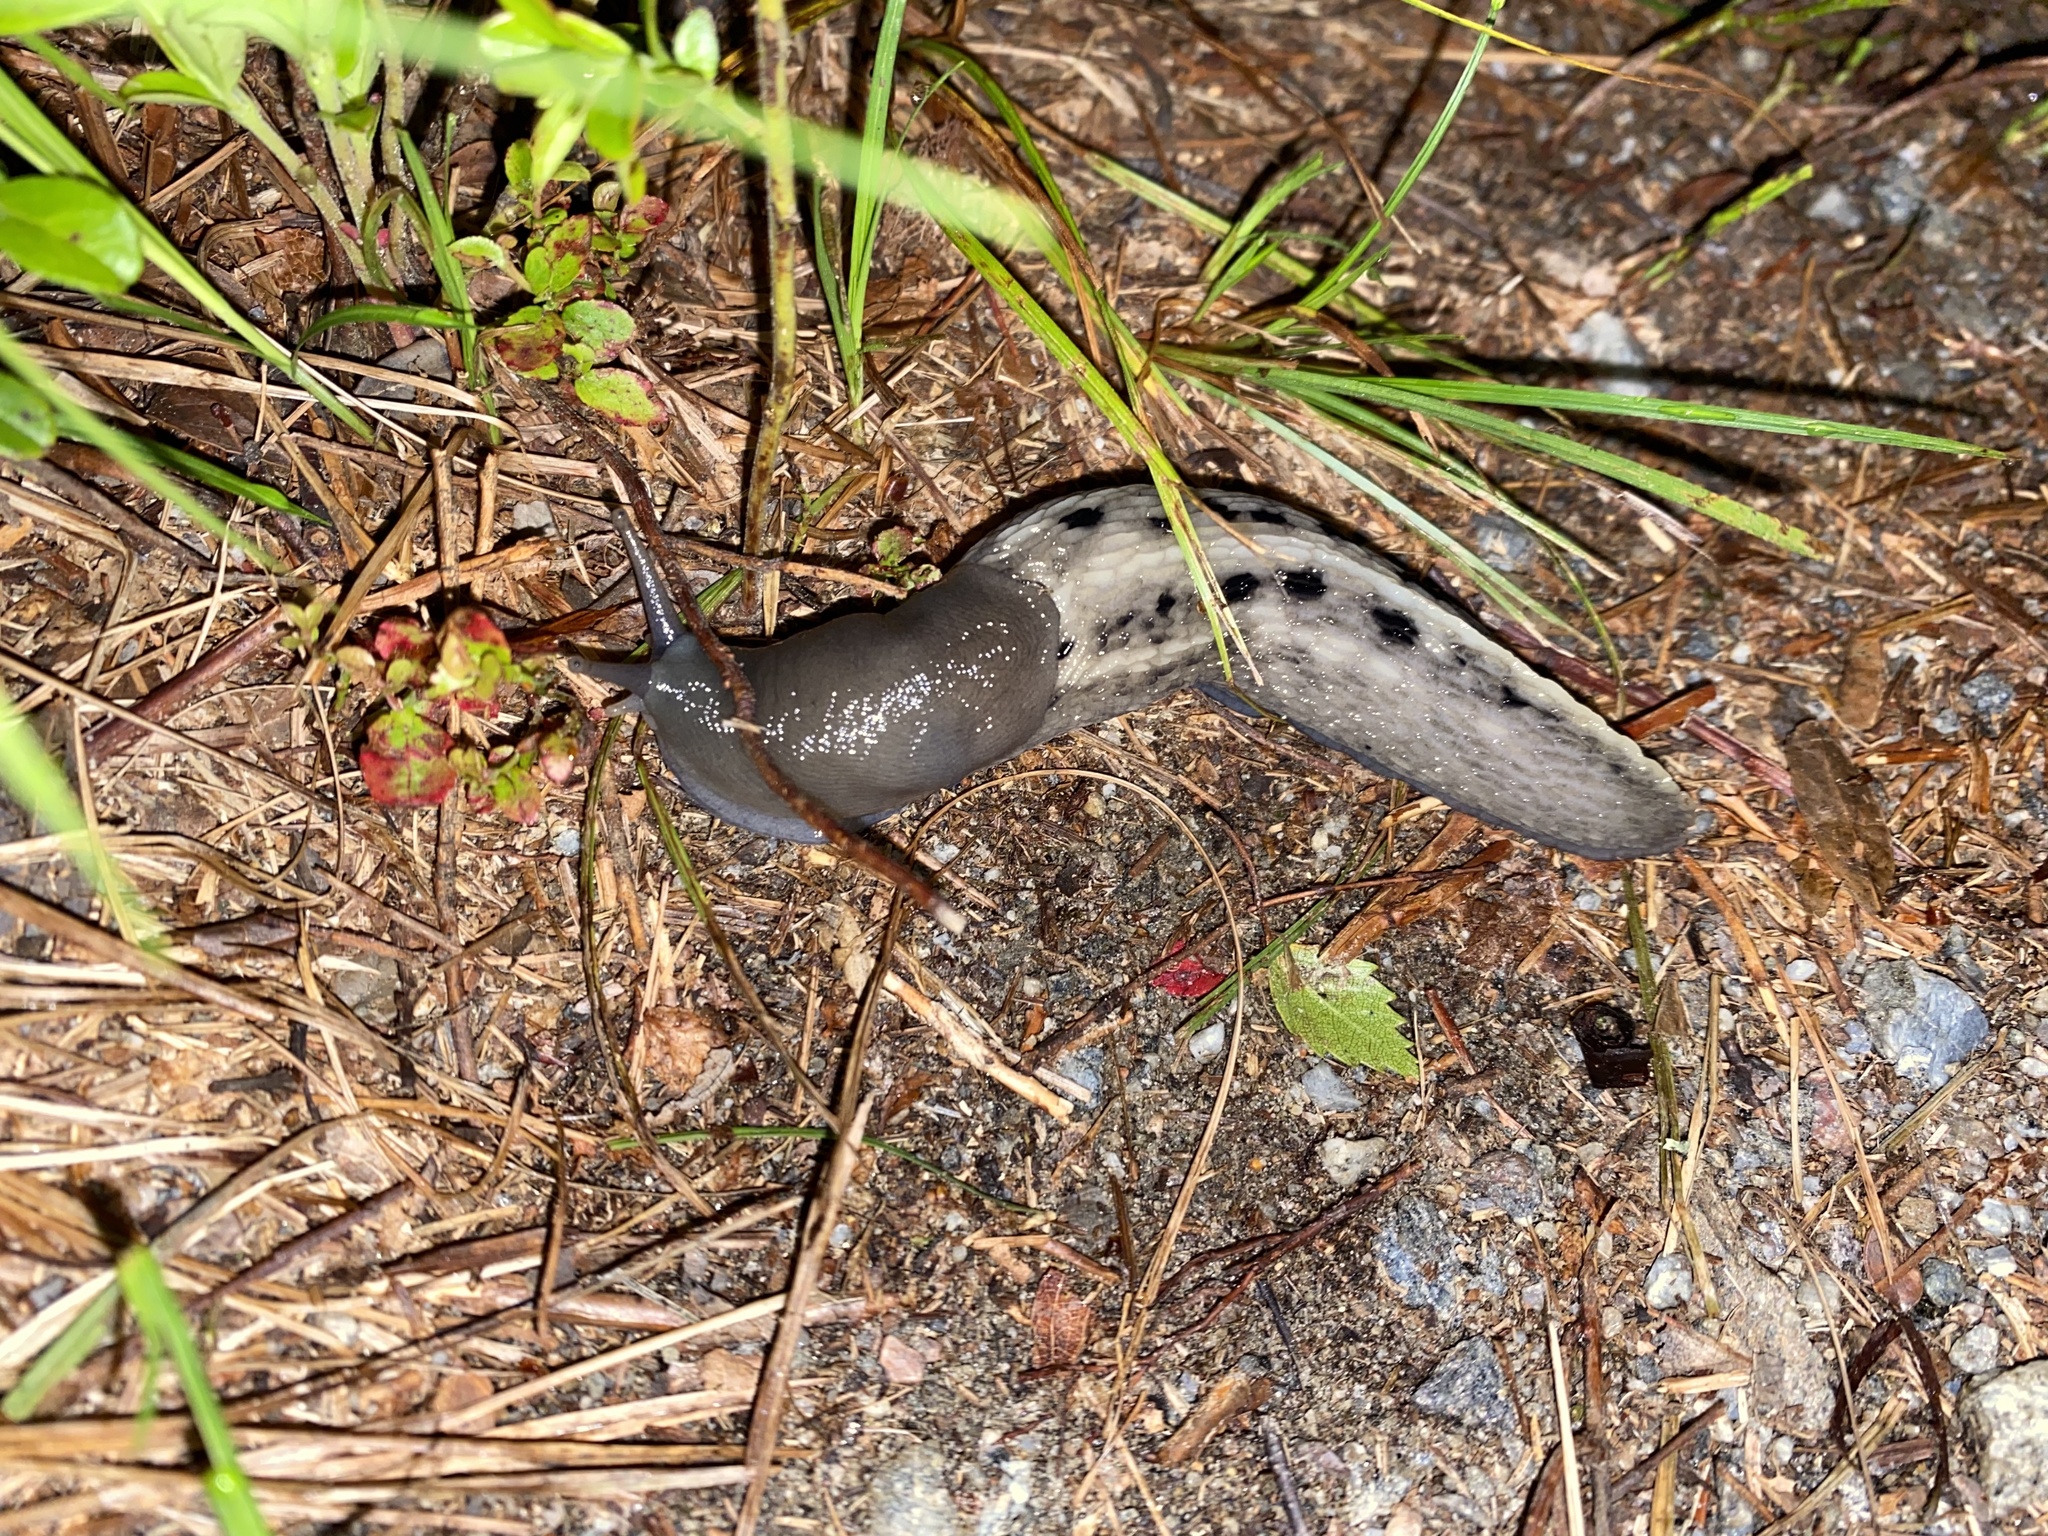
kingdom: Animalia
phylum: Mollusca
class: Gastropoda
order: Stylommatophora
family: Limacidae
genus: Limax
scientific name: Limax cinereoniger
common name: Ash-black slug
